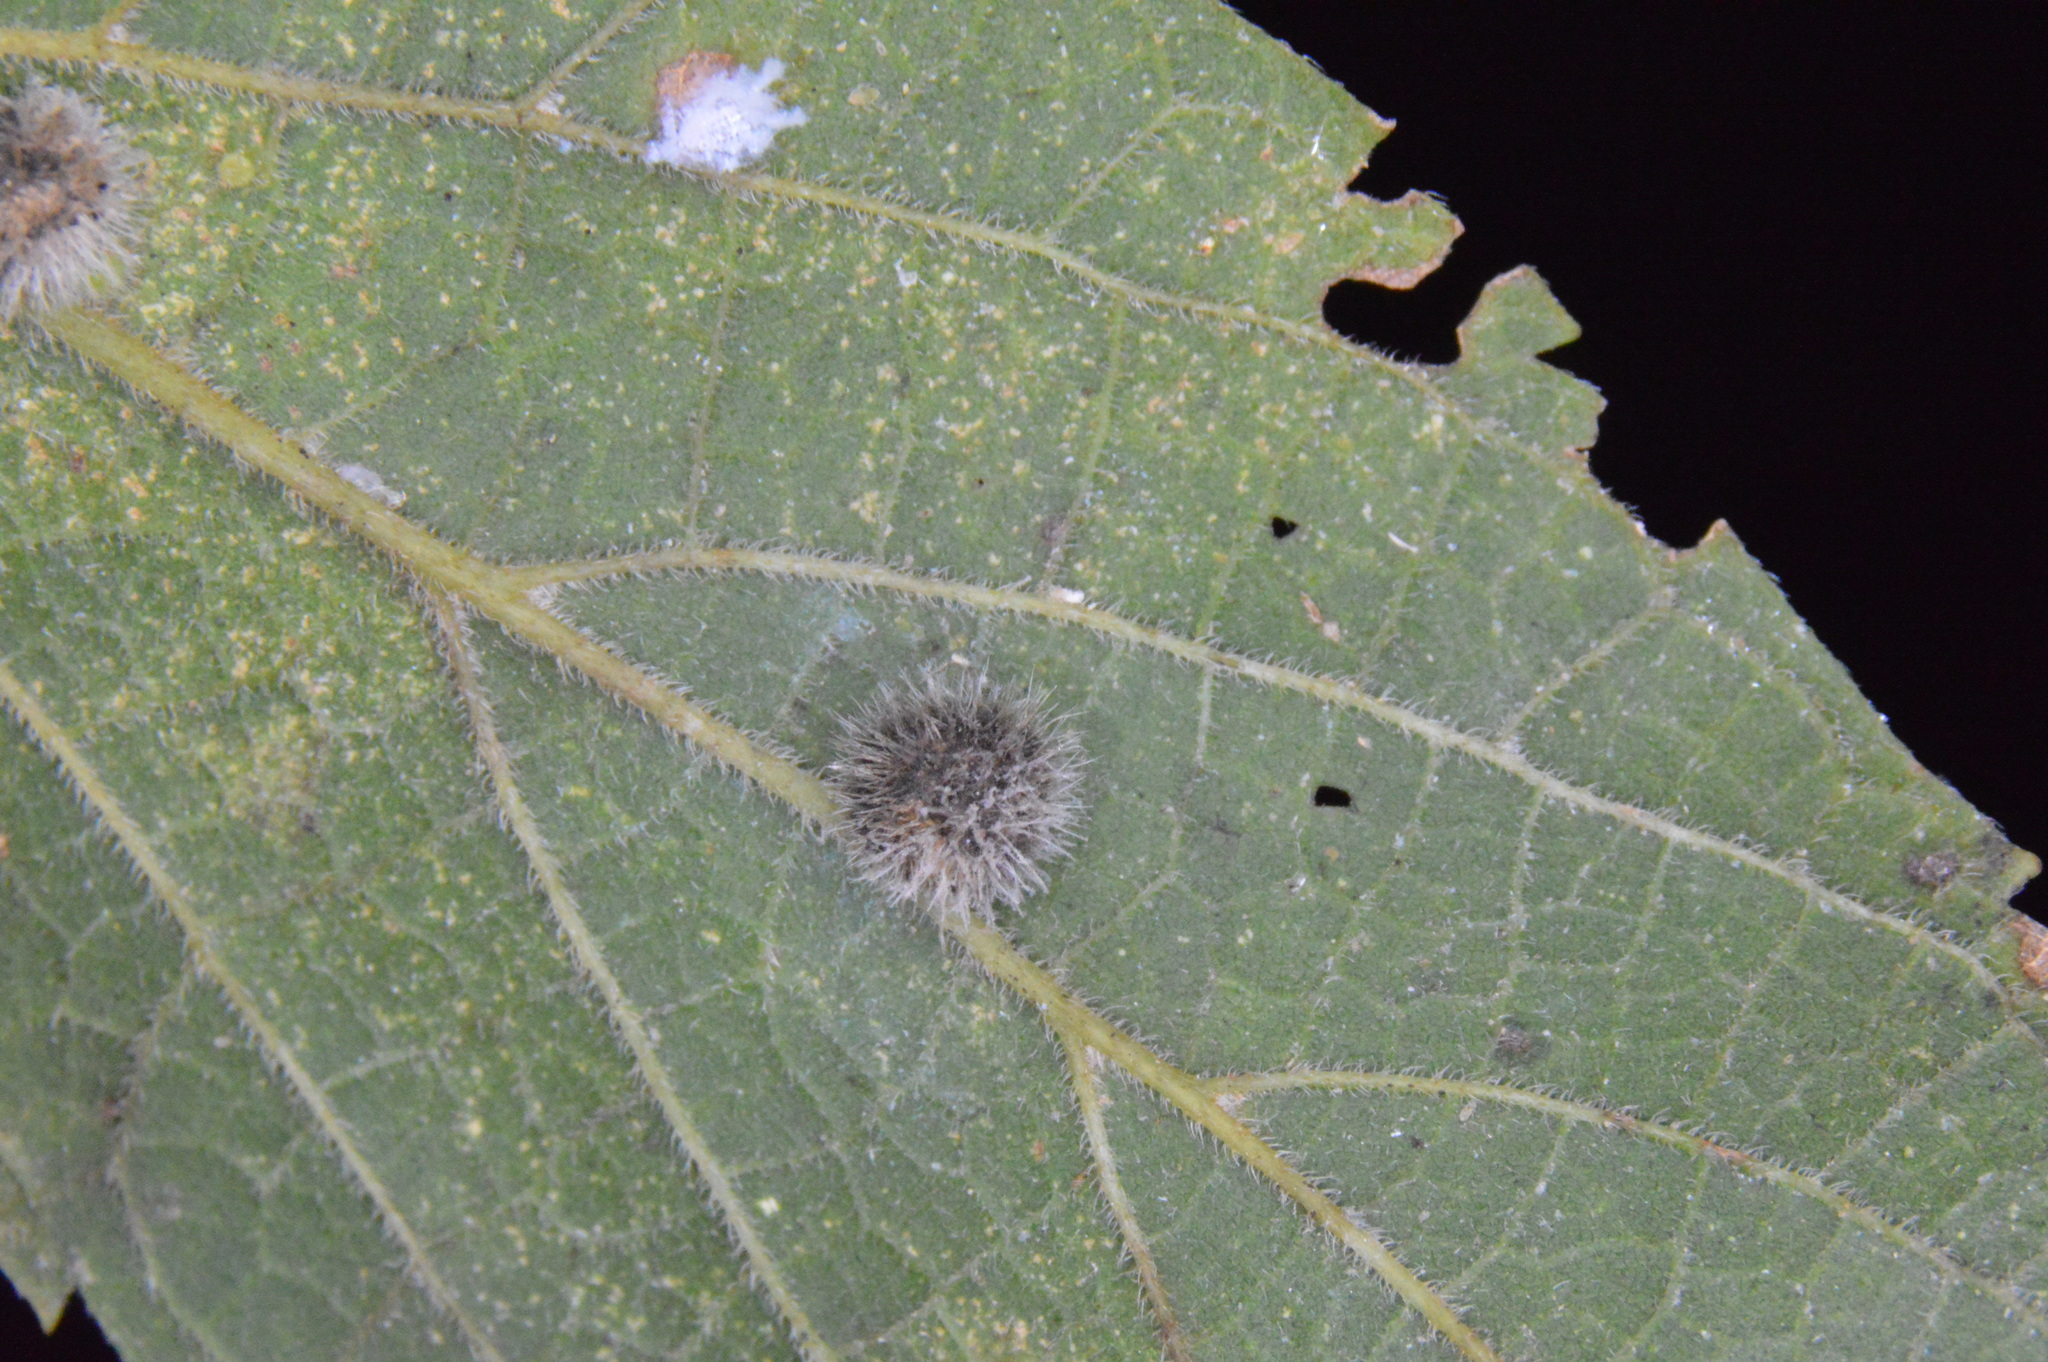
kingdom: Animalia
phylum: Arthropoda
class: Insecta
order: Diptera
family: Cecidomyiidae
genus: Celticecis
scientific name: Celticecis pubescens
